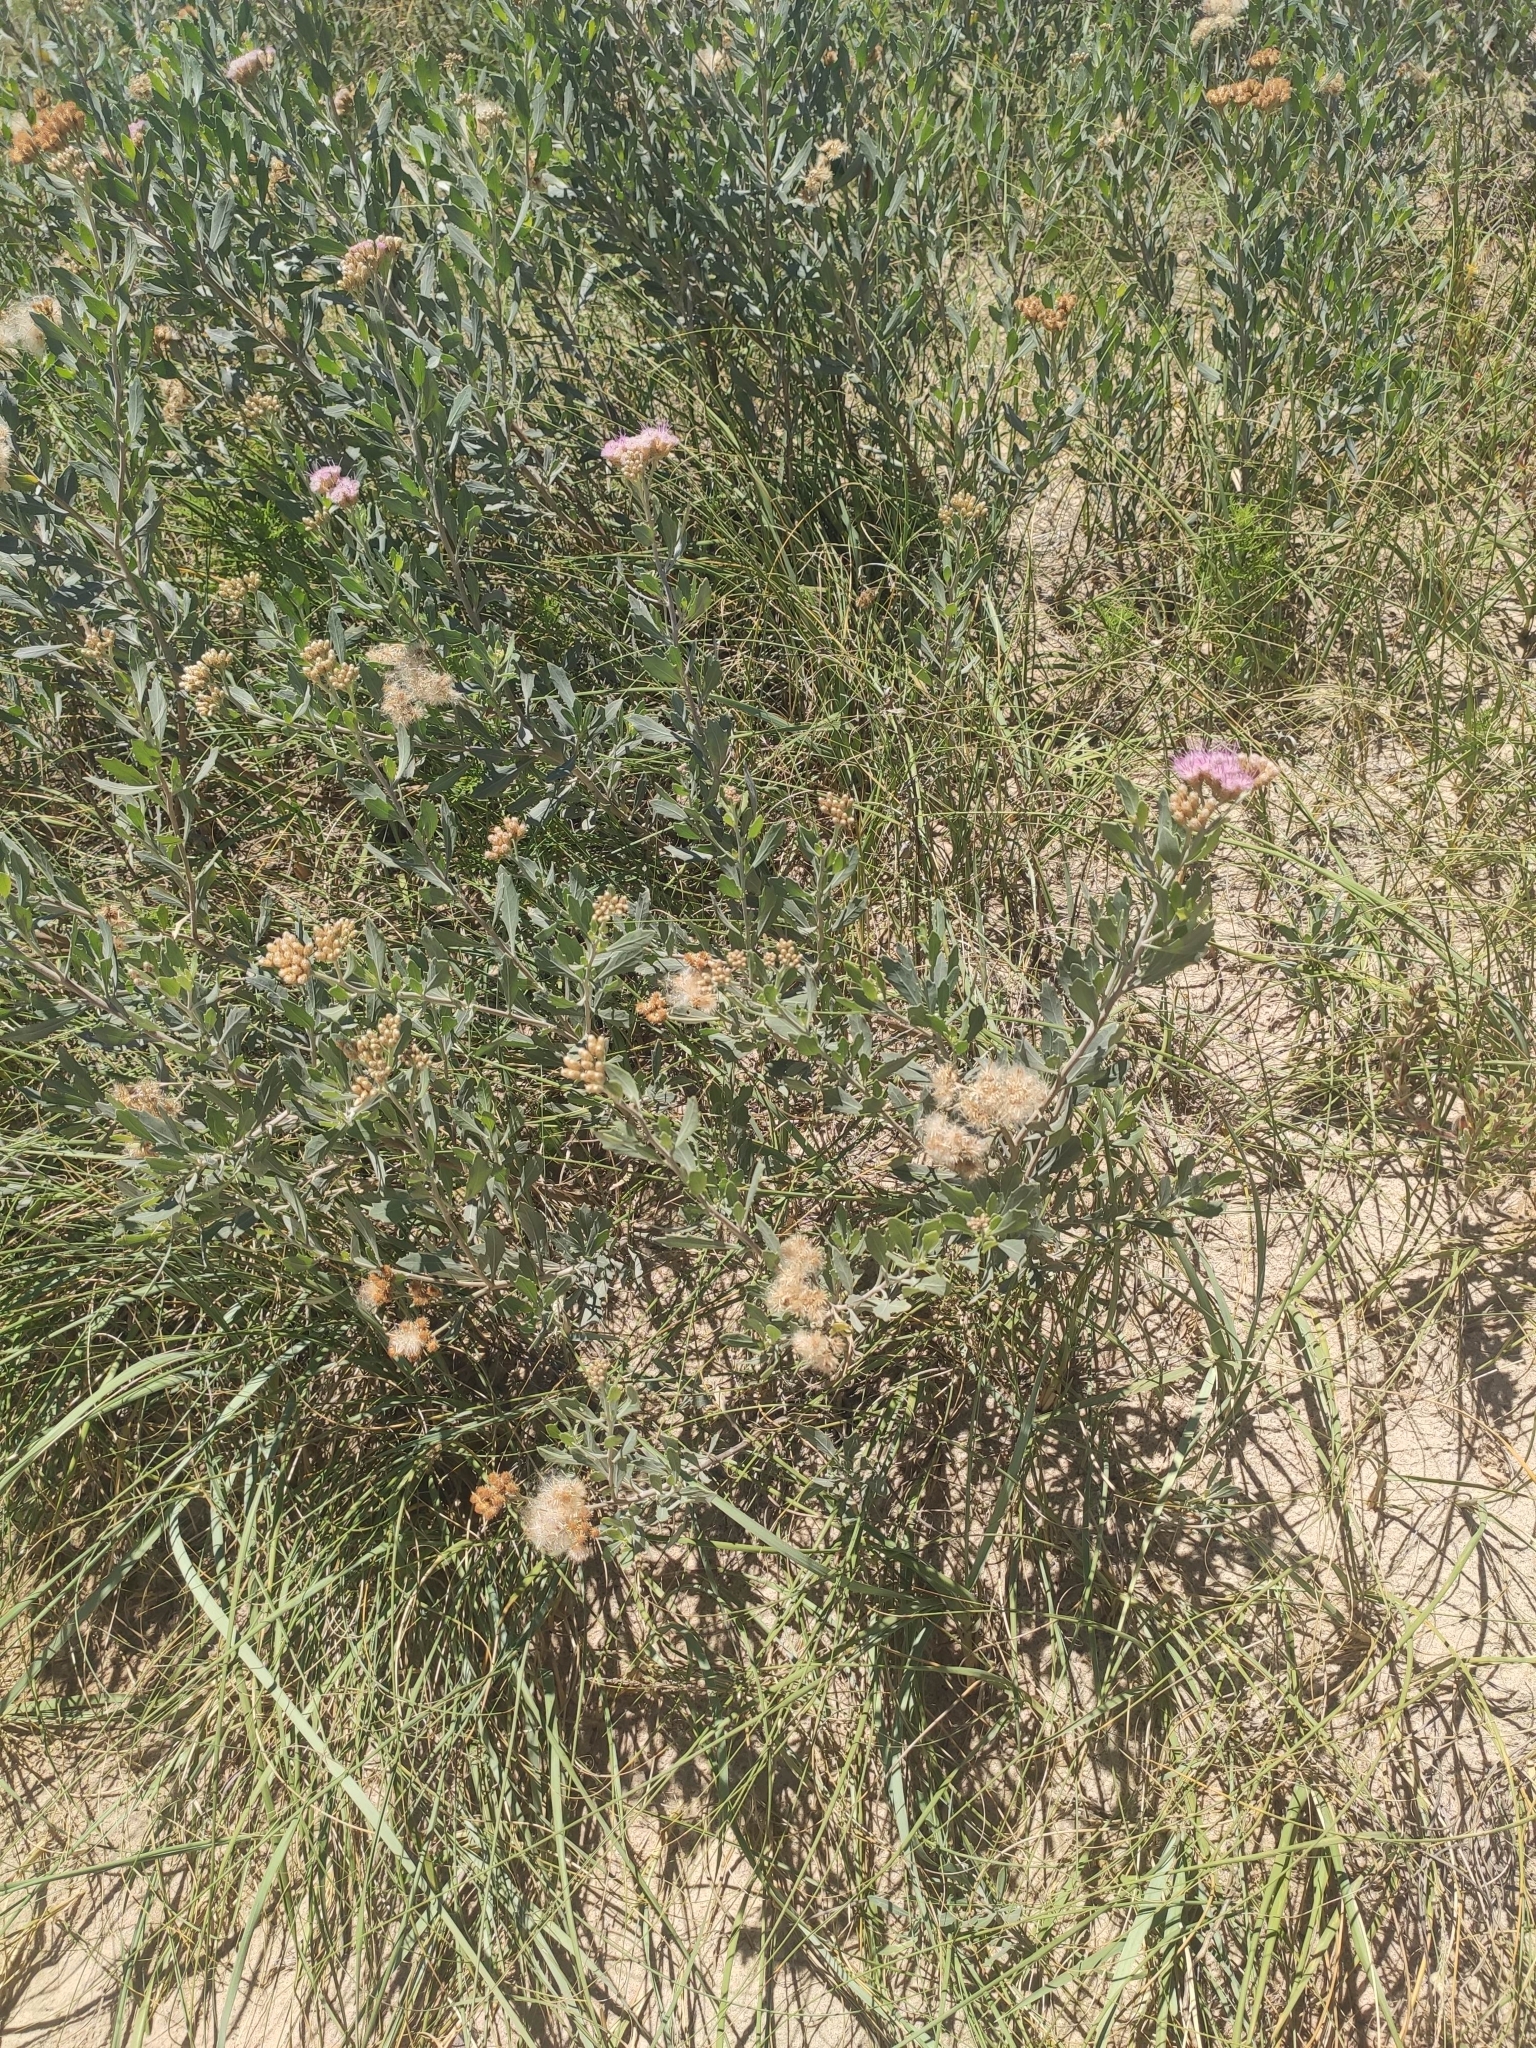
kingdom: Plantae
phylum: Tracheophyta
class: Magnoliopsida
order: Asterales
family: Asteraceae
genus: Tessaria
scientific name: Tessaria absinthioides
